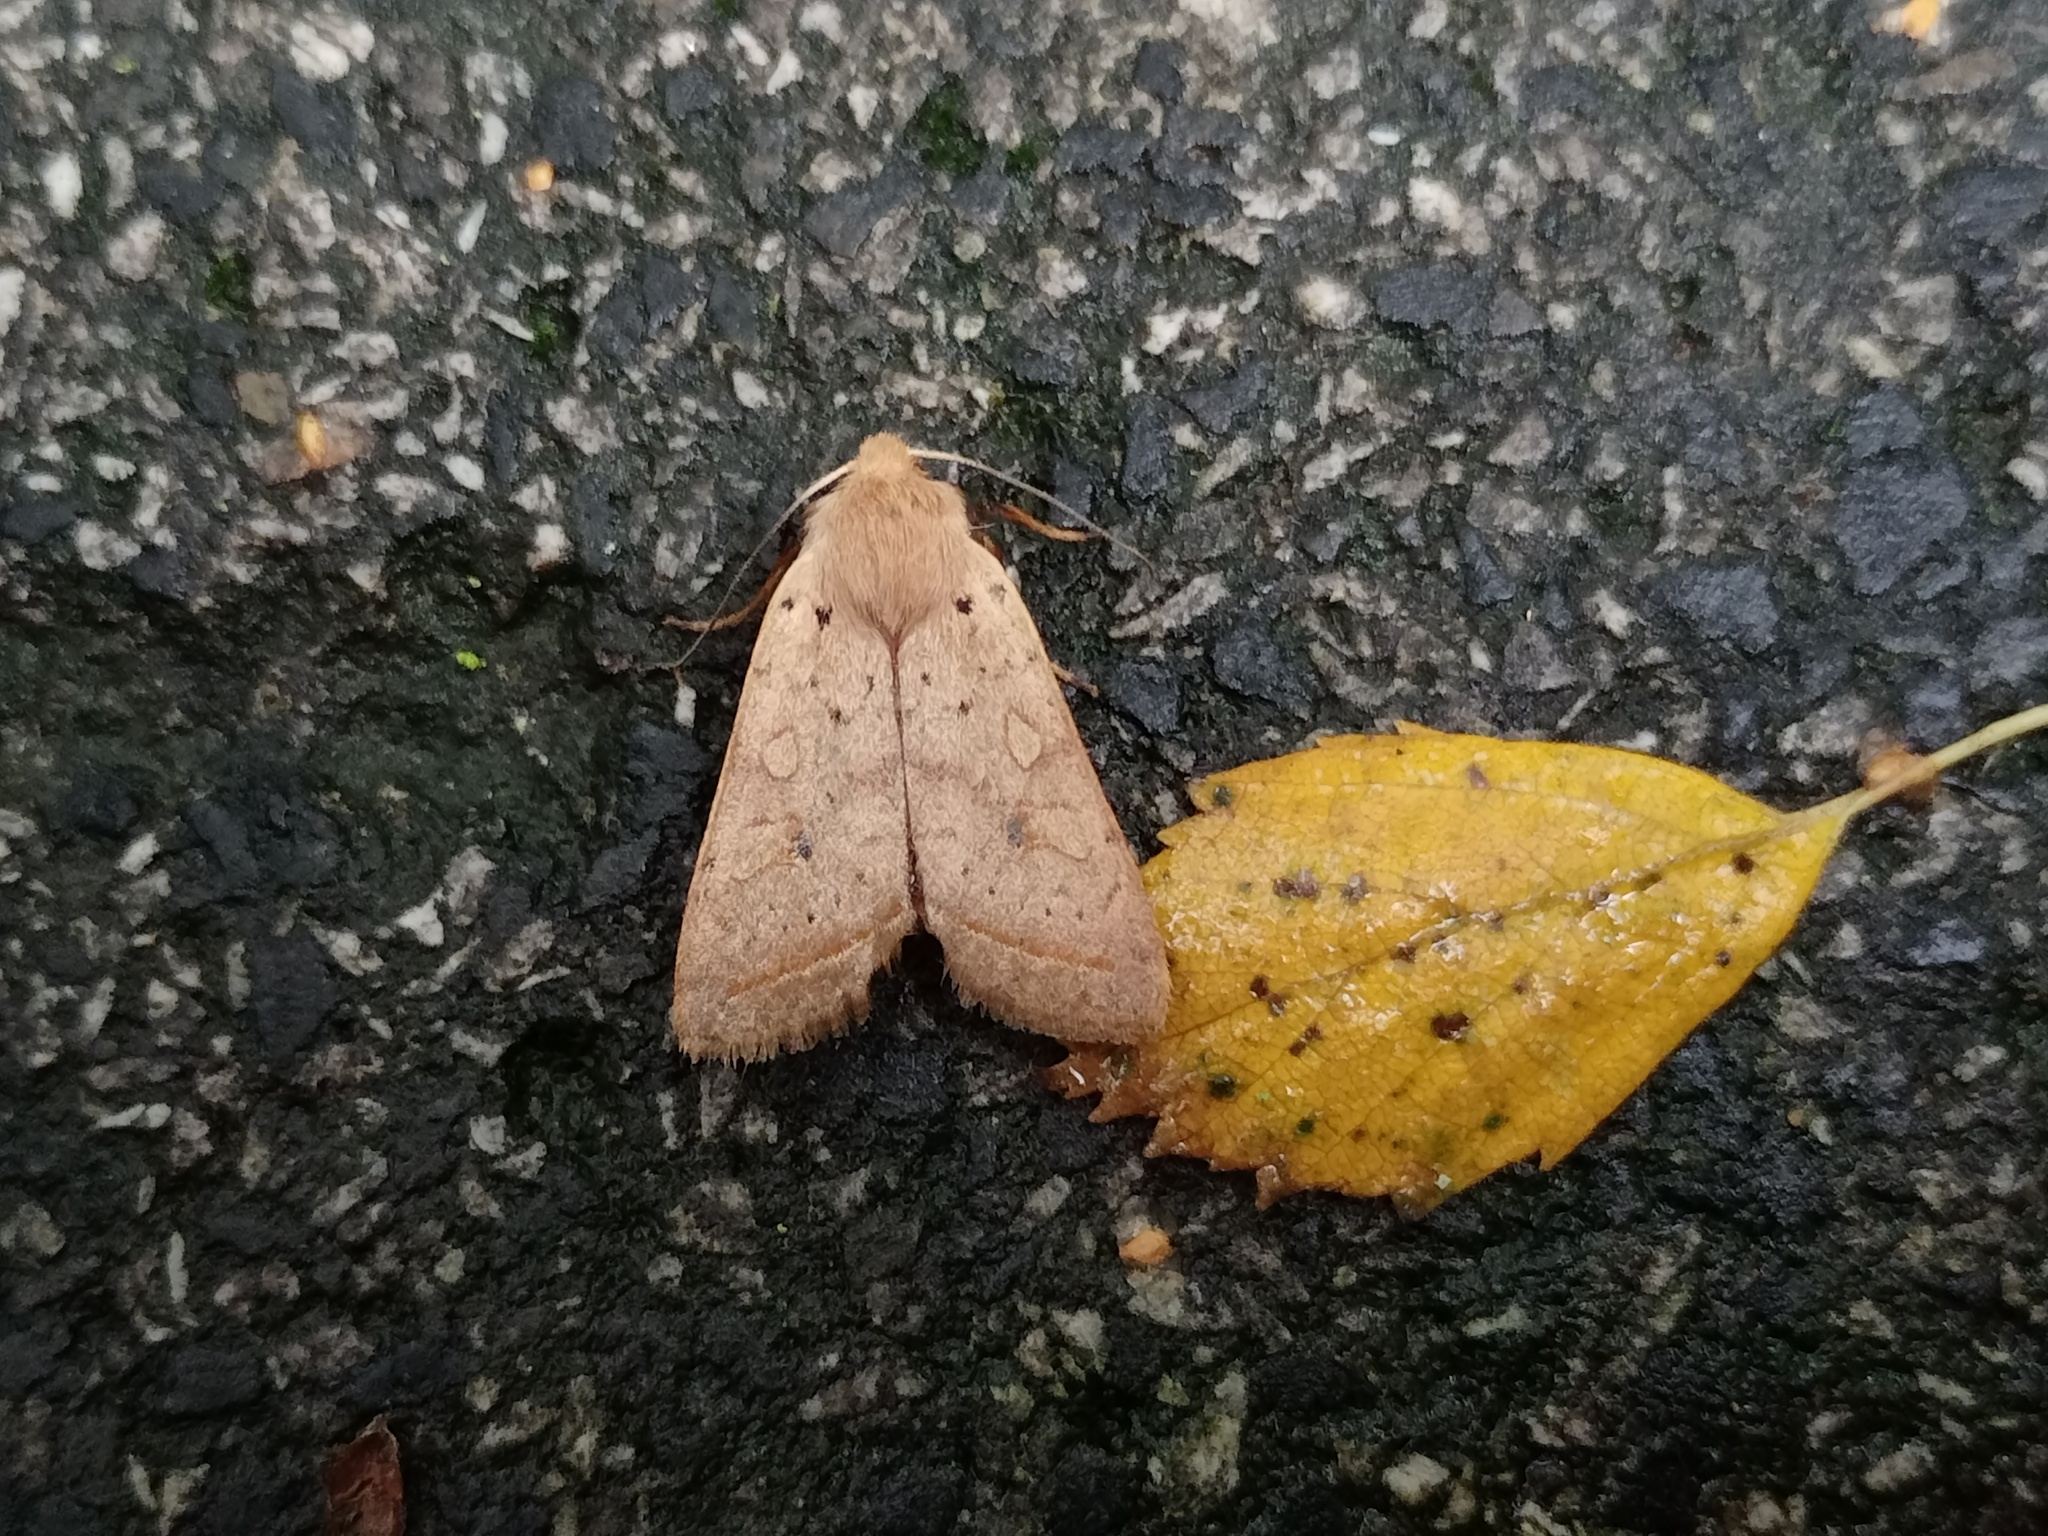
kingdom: Animalia
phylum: Arthropoda
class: Insecta
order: Lepidoptera
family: Noctuidae
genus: Agrochola
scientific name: Agrochola macilenta
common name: Yellow-line quaker
